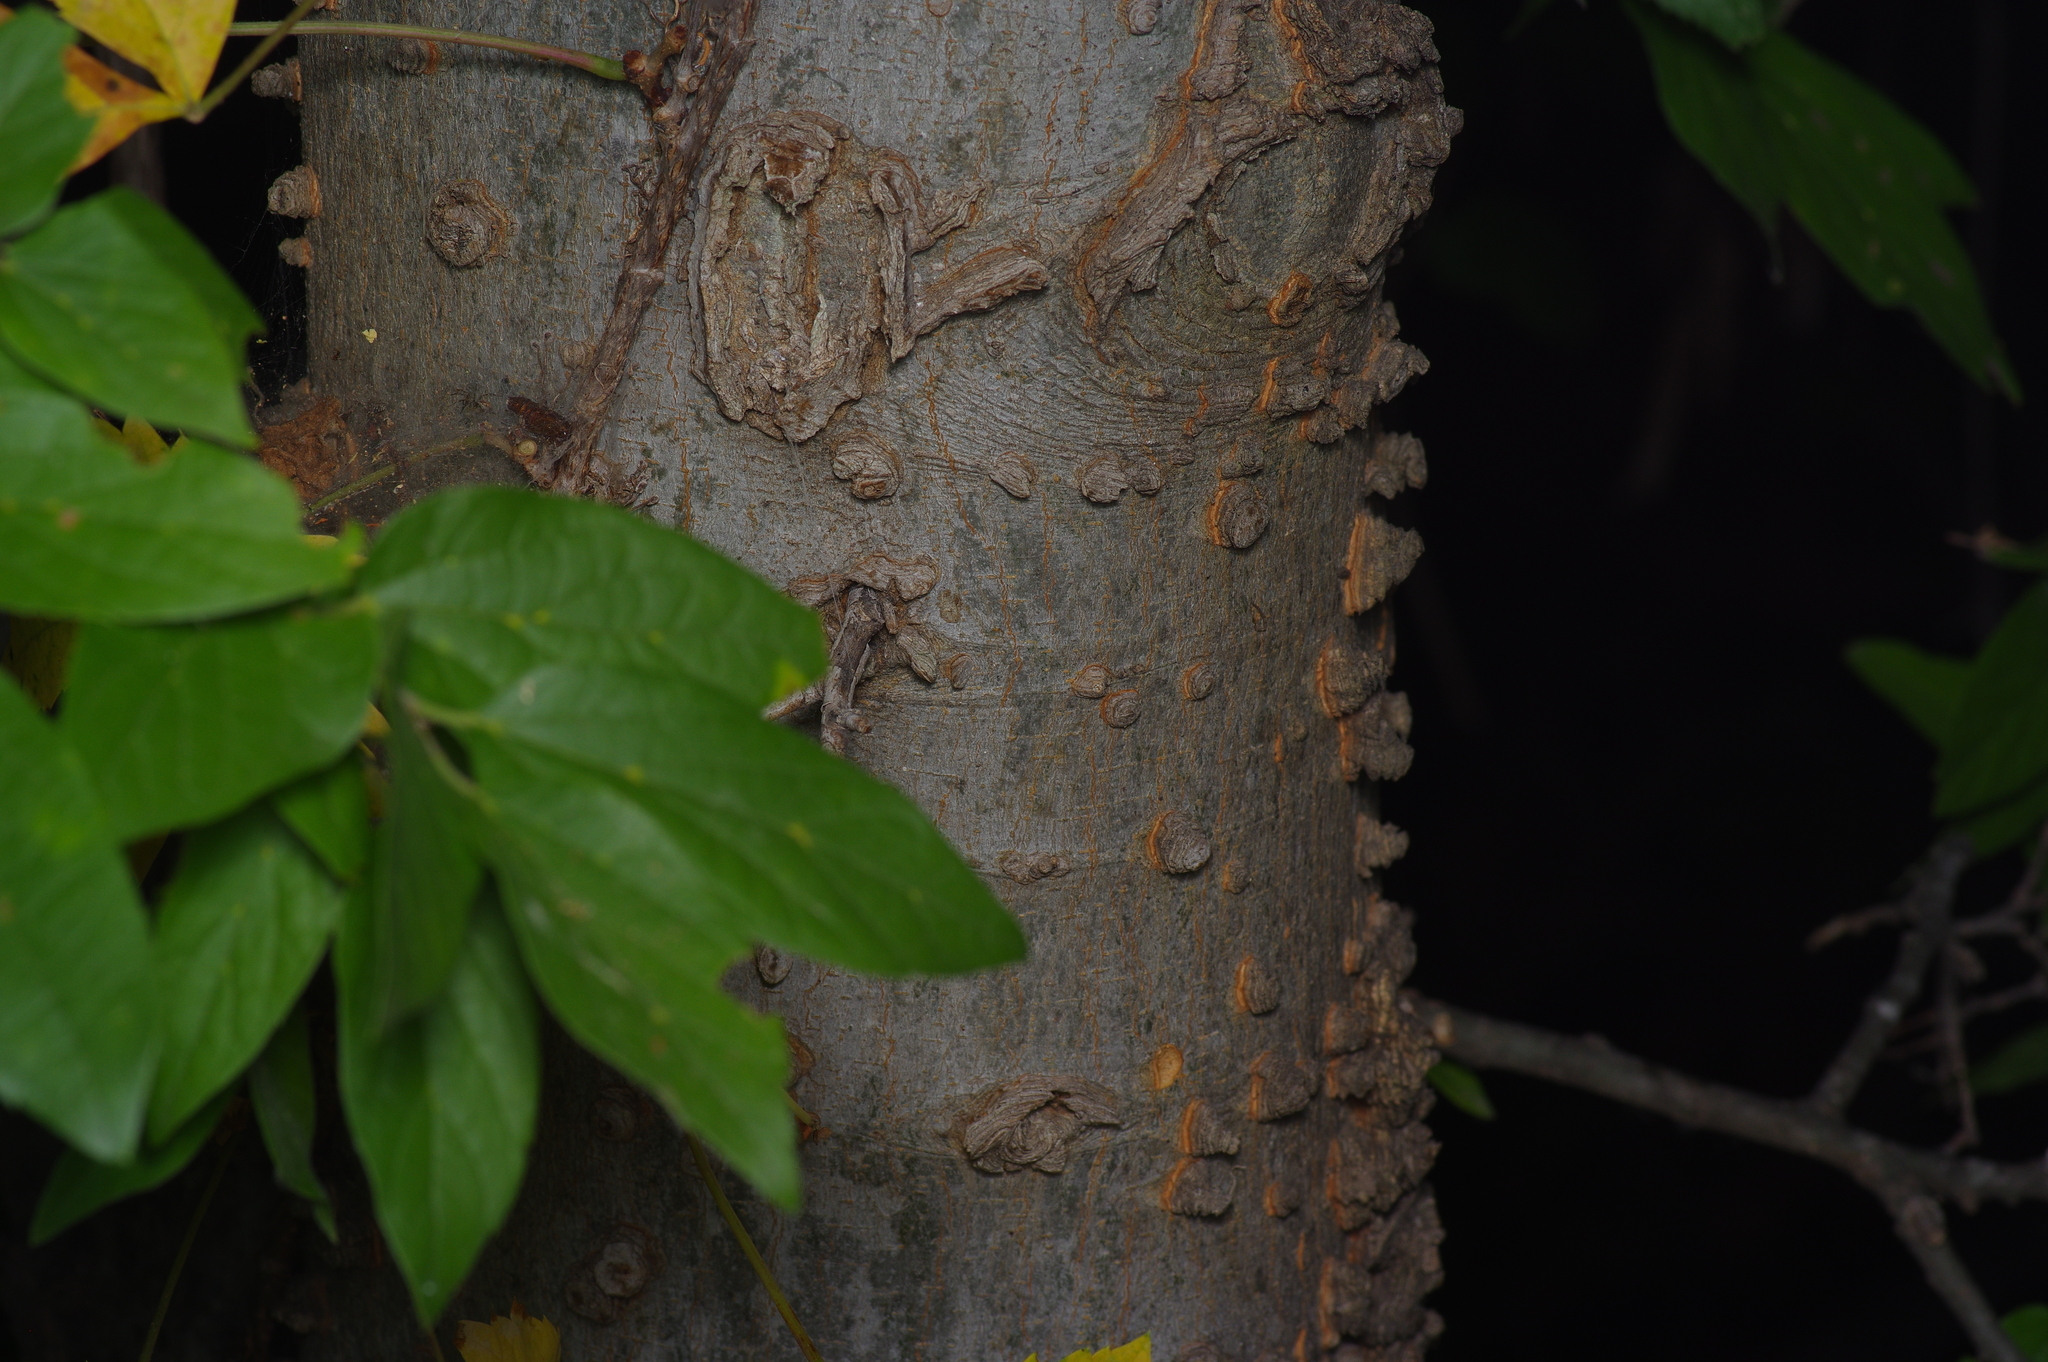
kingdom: Plantae
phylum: Tracheophyta
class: Magnoliopsida
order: Rosales
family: Cannabaceae
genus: Celtis
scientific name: Celtis reticulata
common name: Netleaf hackberry
